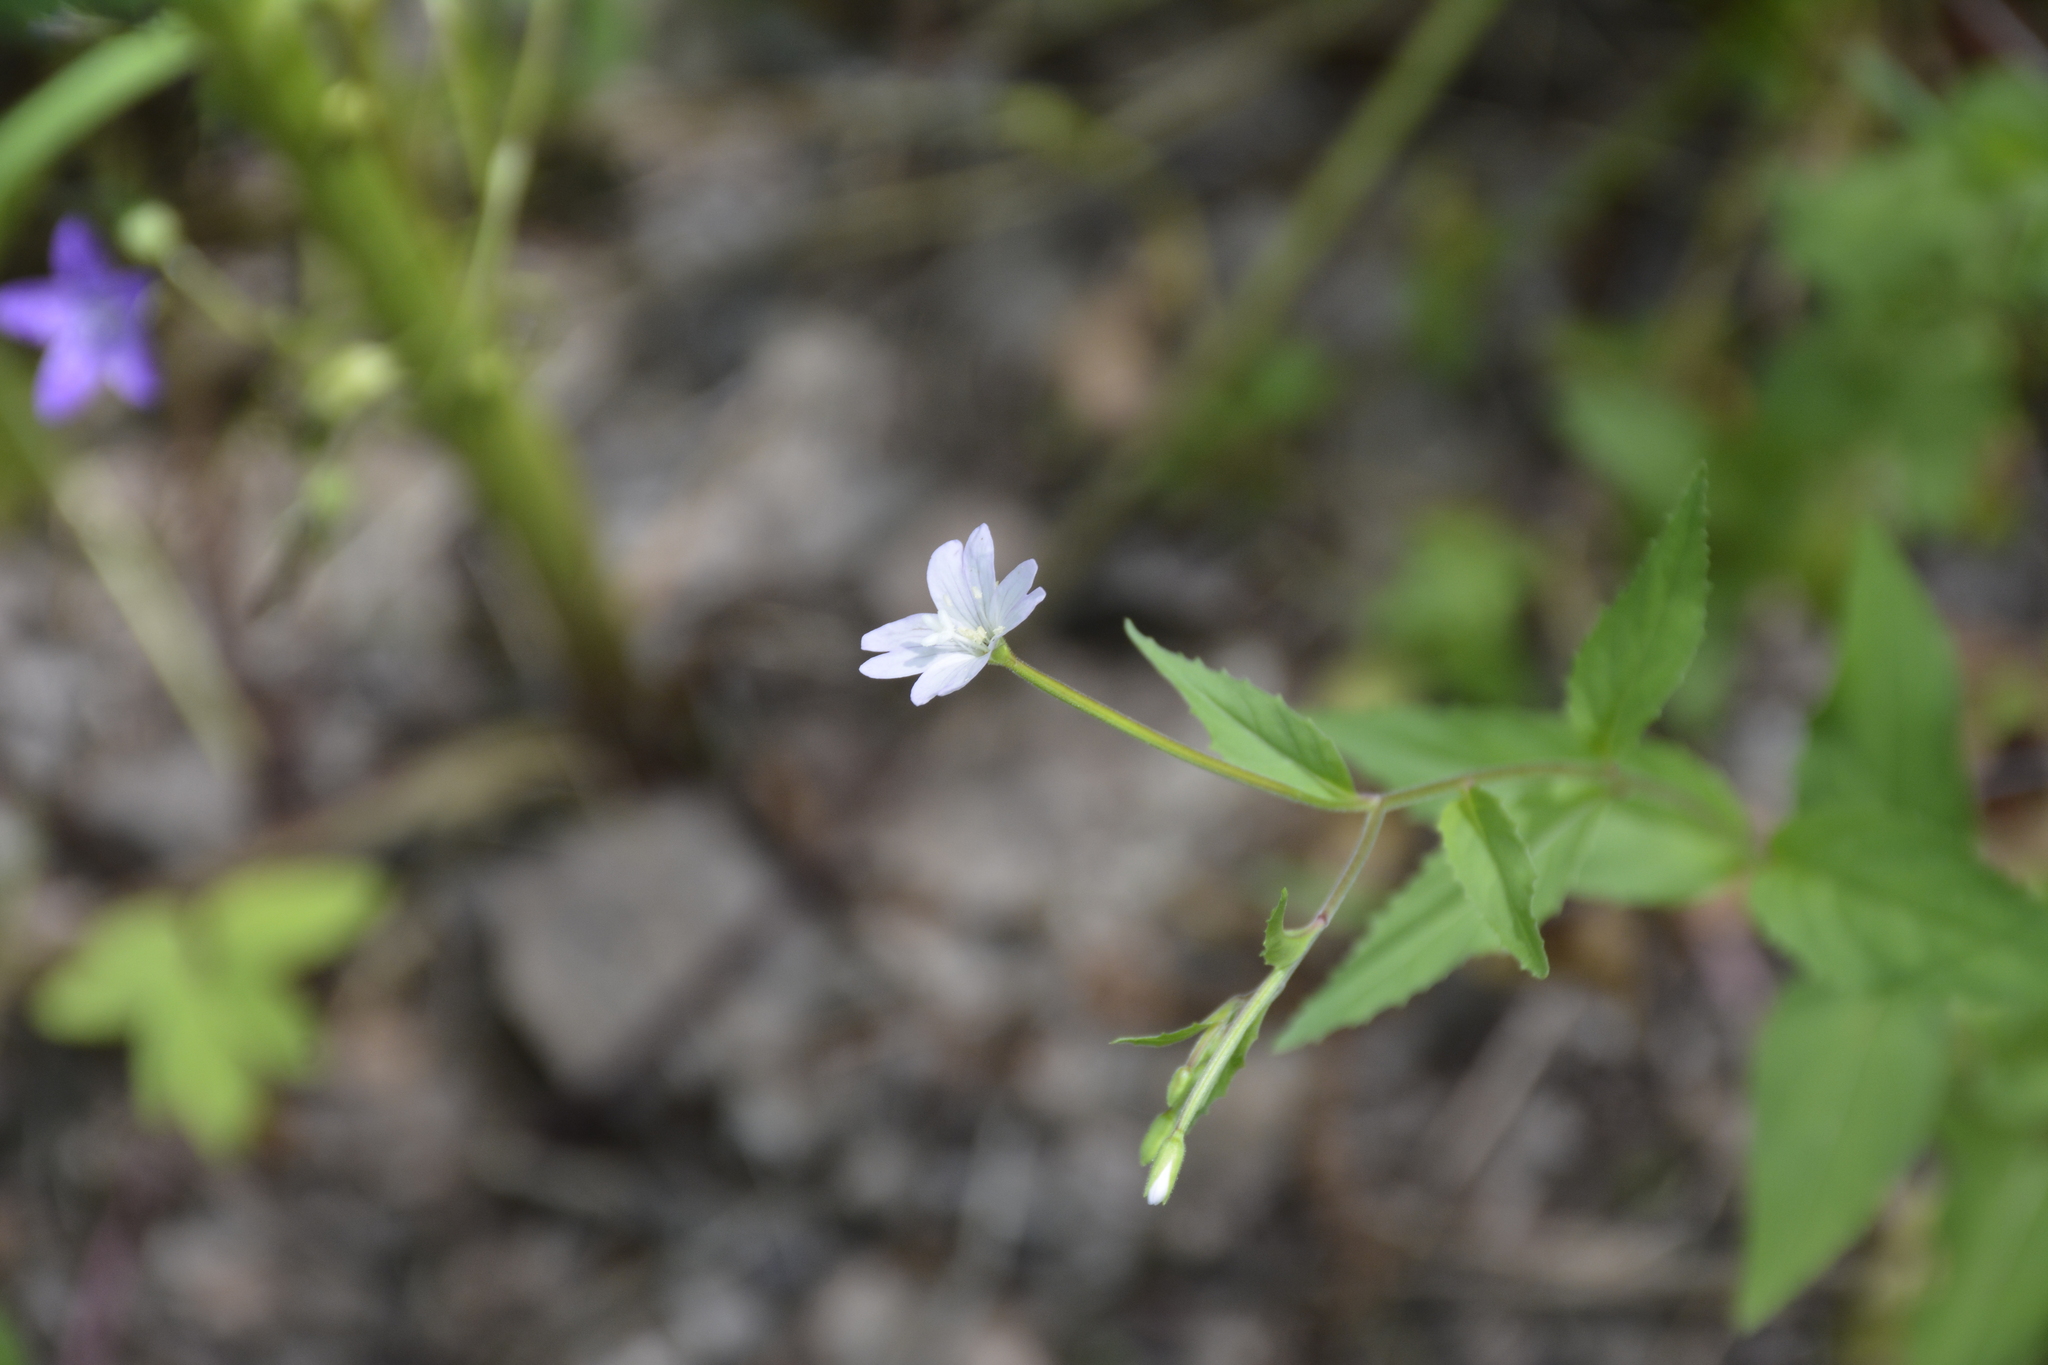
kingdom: Plantae
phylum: Tracheophyta
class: Magnoliopsida
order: Myrtales
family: Onagraceae
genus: Epilobium
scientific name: Epilobium montanum
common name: Broad-leaved willowherb
